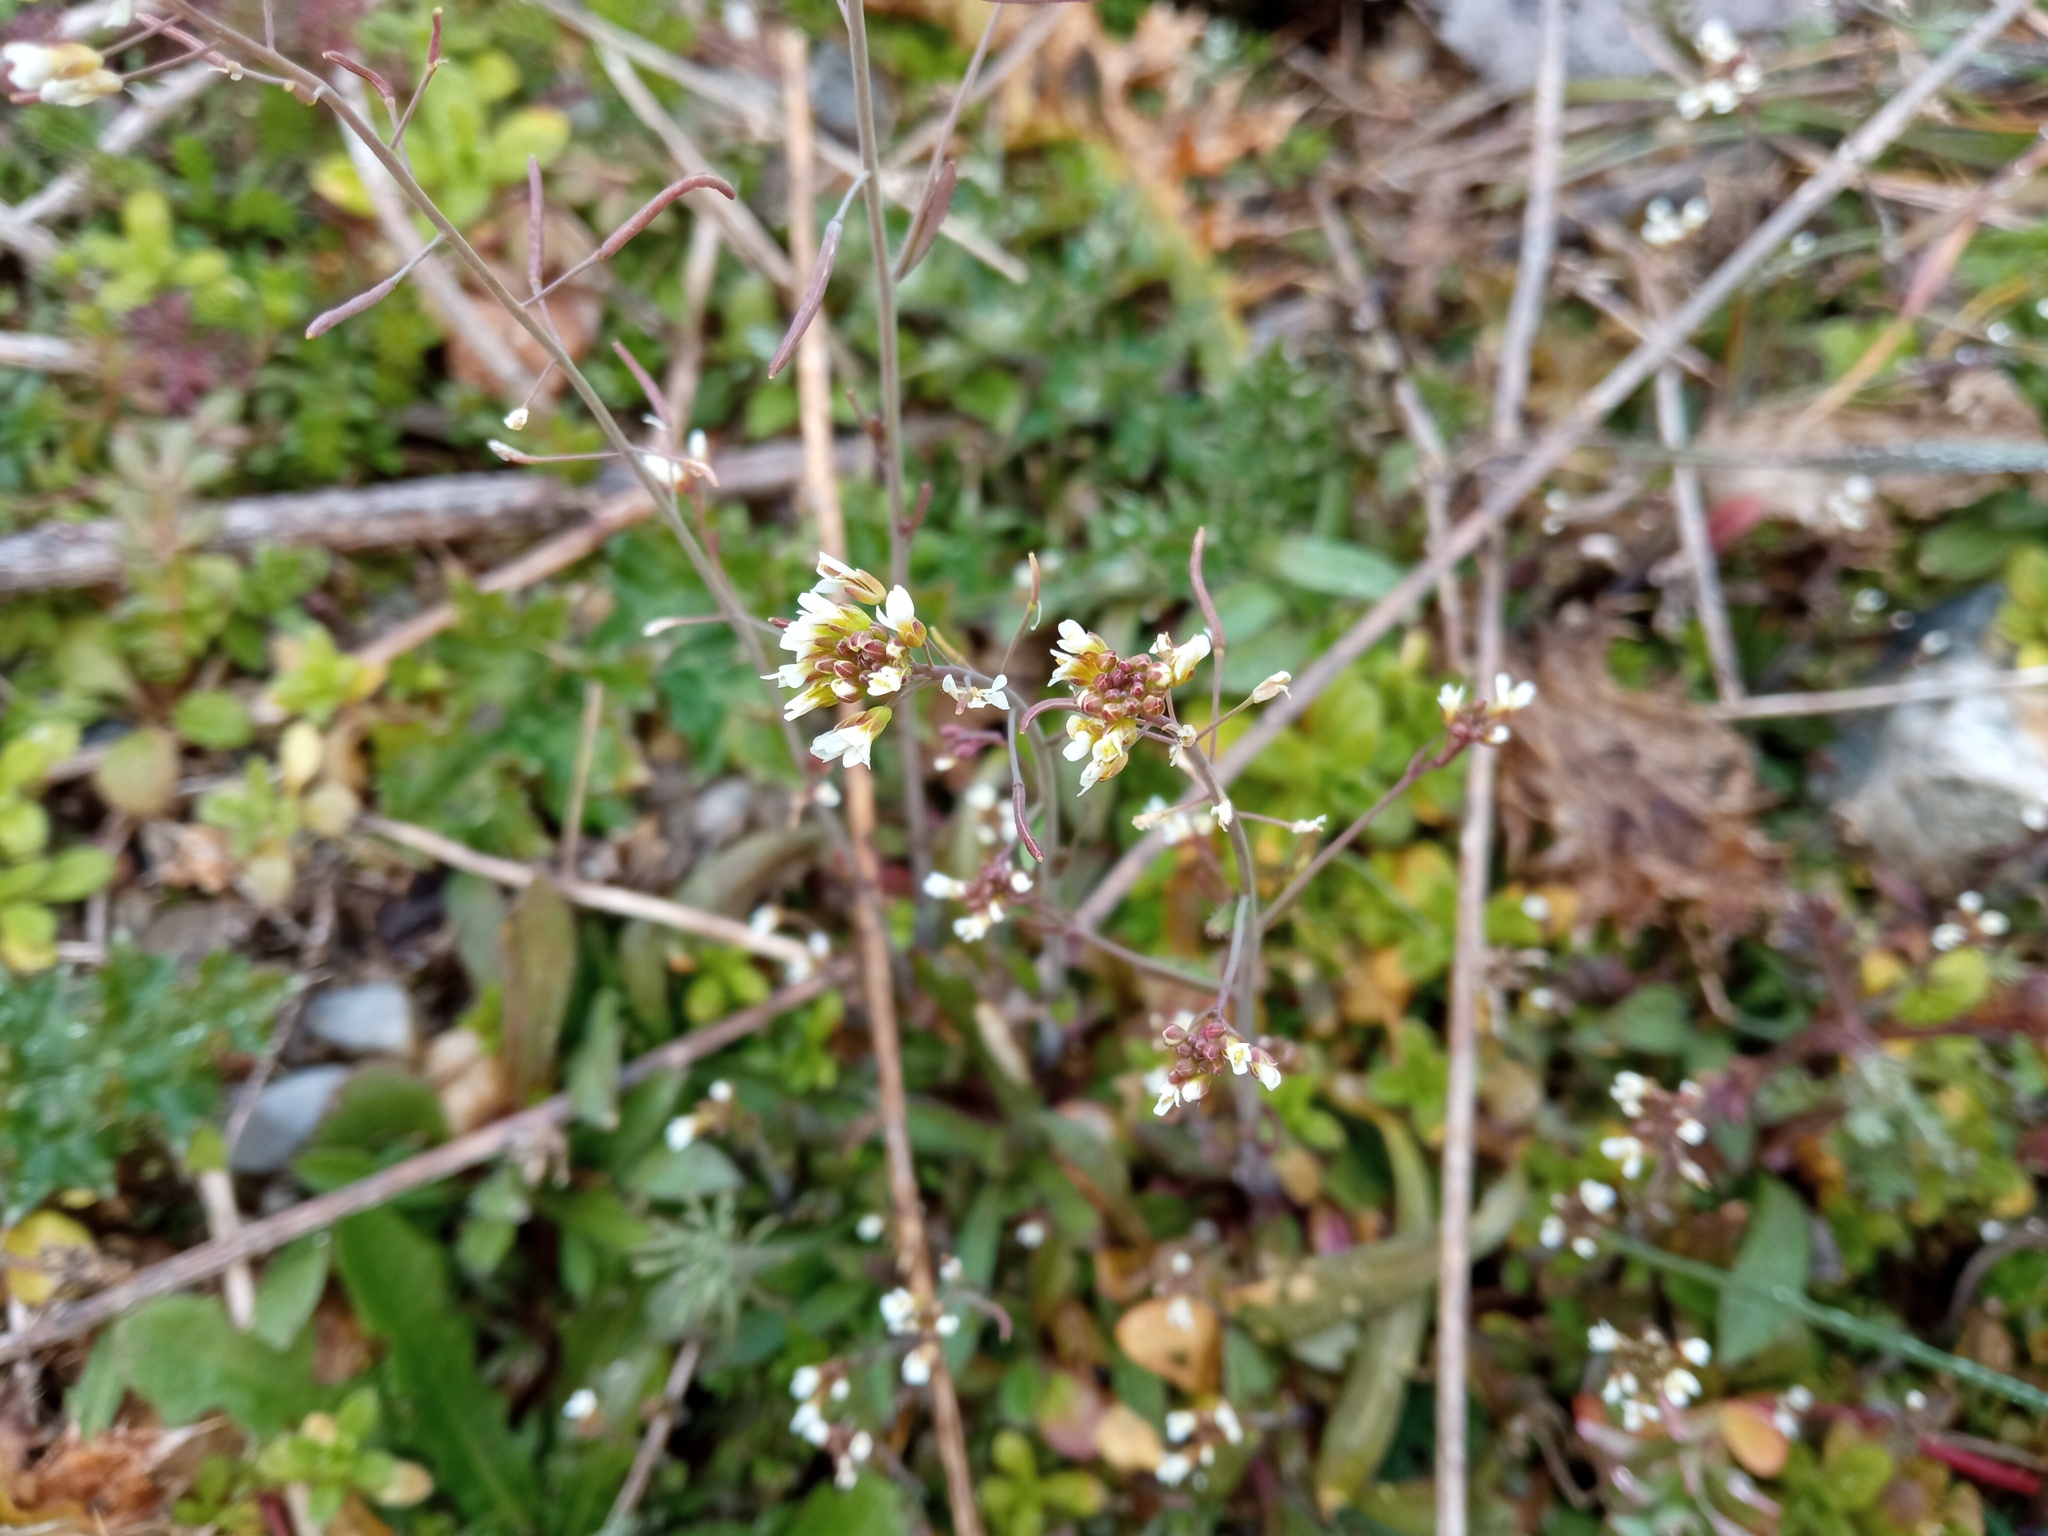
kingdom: Plantae
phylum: Tracheophyta
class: Magnoliopsida
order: Brassicales
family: Brassicaceae
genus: Arabidopsis
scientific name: Arabidopsis thaliana
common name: Thale cress
